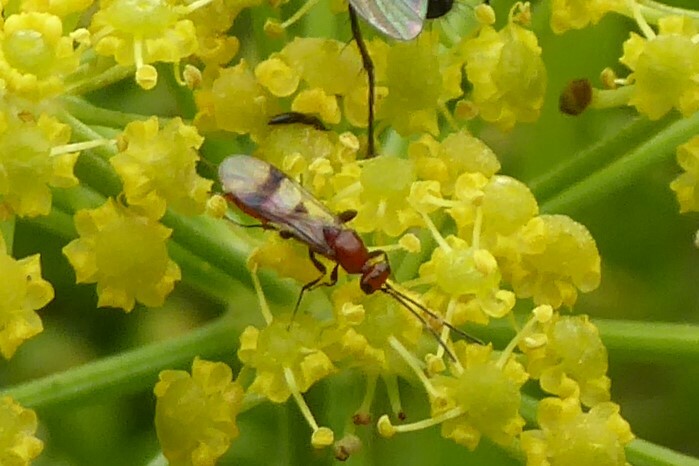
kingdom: Animalia
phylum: Arthropoda
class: Insecta
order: Hymenoptera
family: Proctotrupidae
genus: Fustiserphus
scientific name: Fustiserphus
